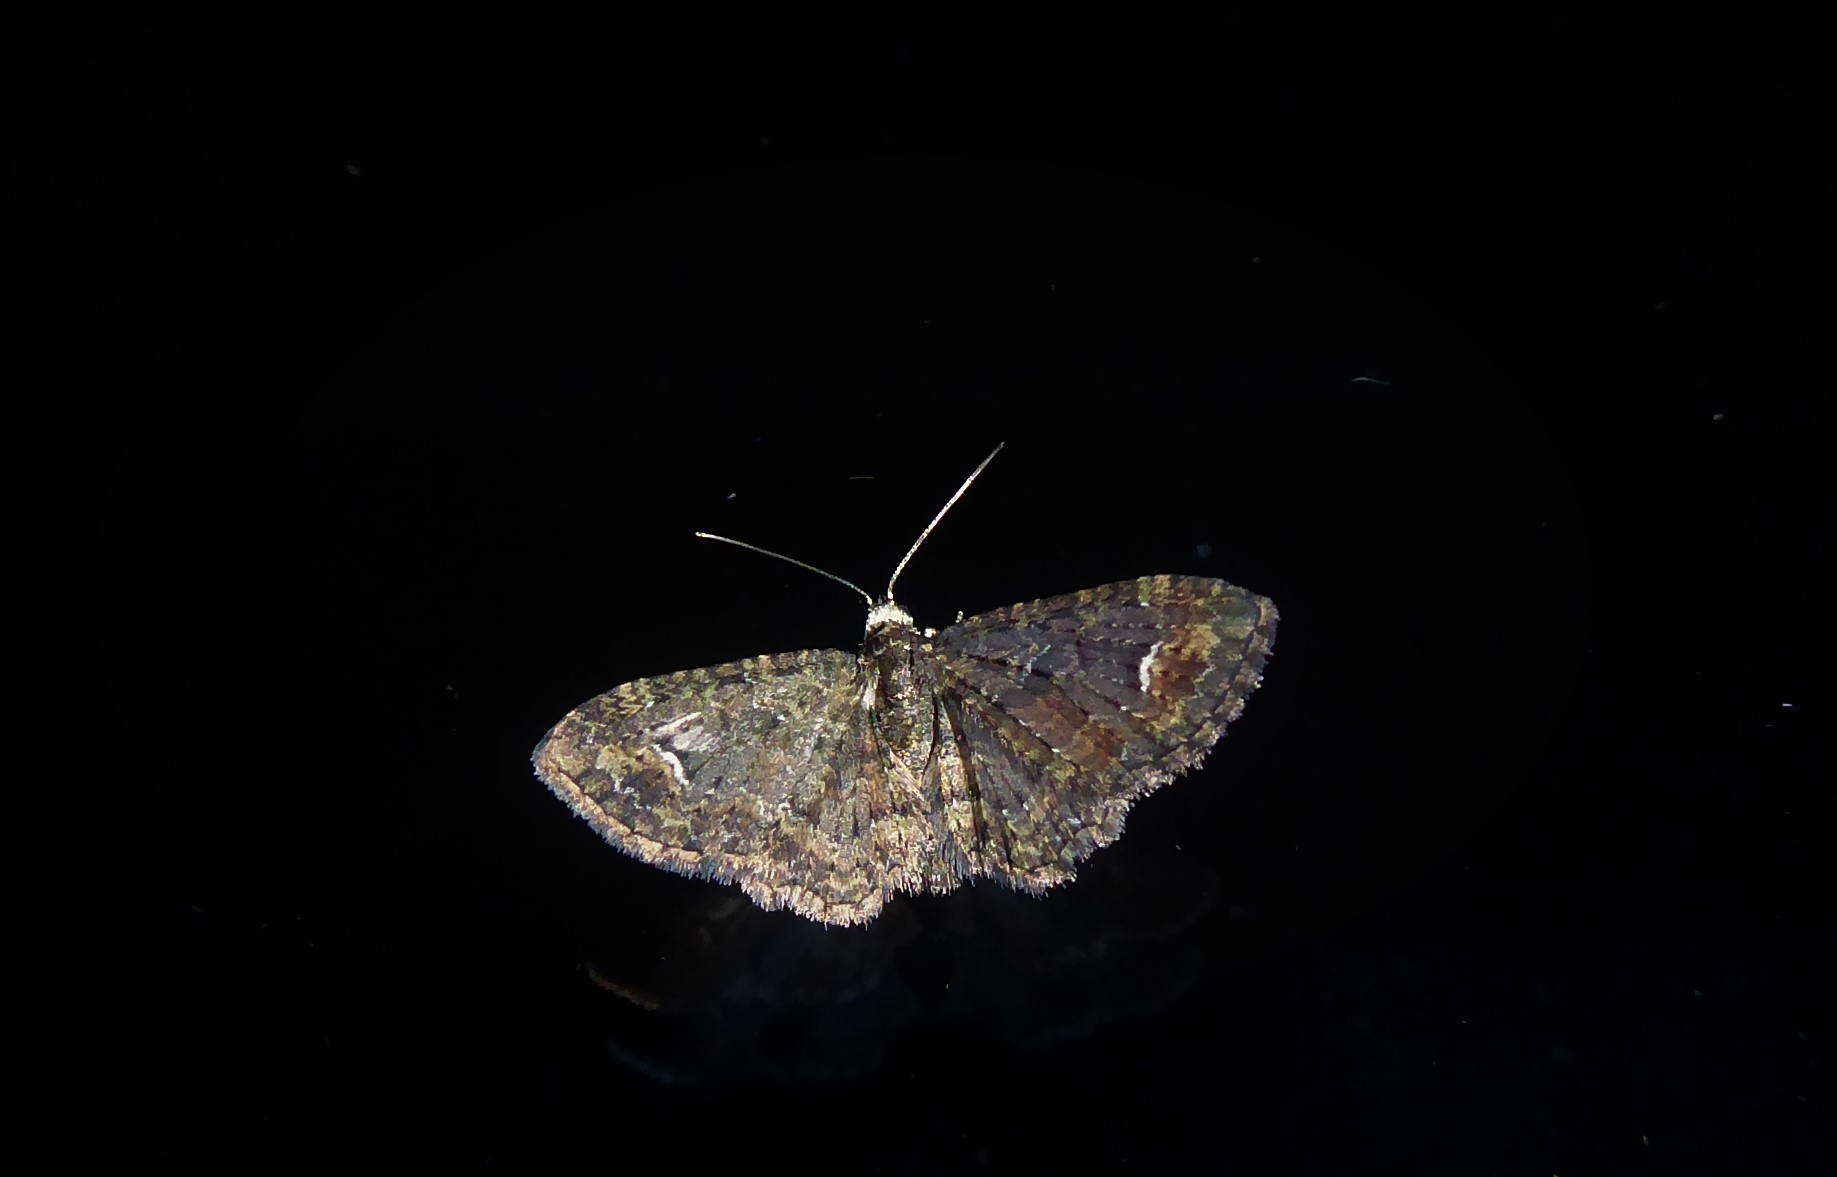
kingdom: Animalia
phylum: Arthropoda
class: Insecta
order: Lepidoptera
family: Geometridae
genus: Pasiphilodes
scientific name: Pasiphilodes testulata
